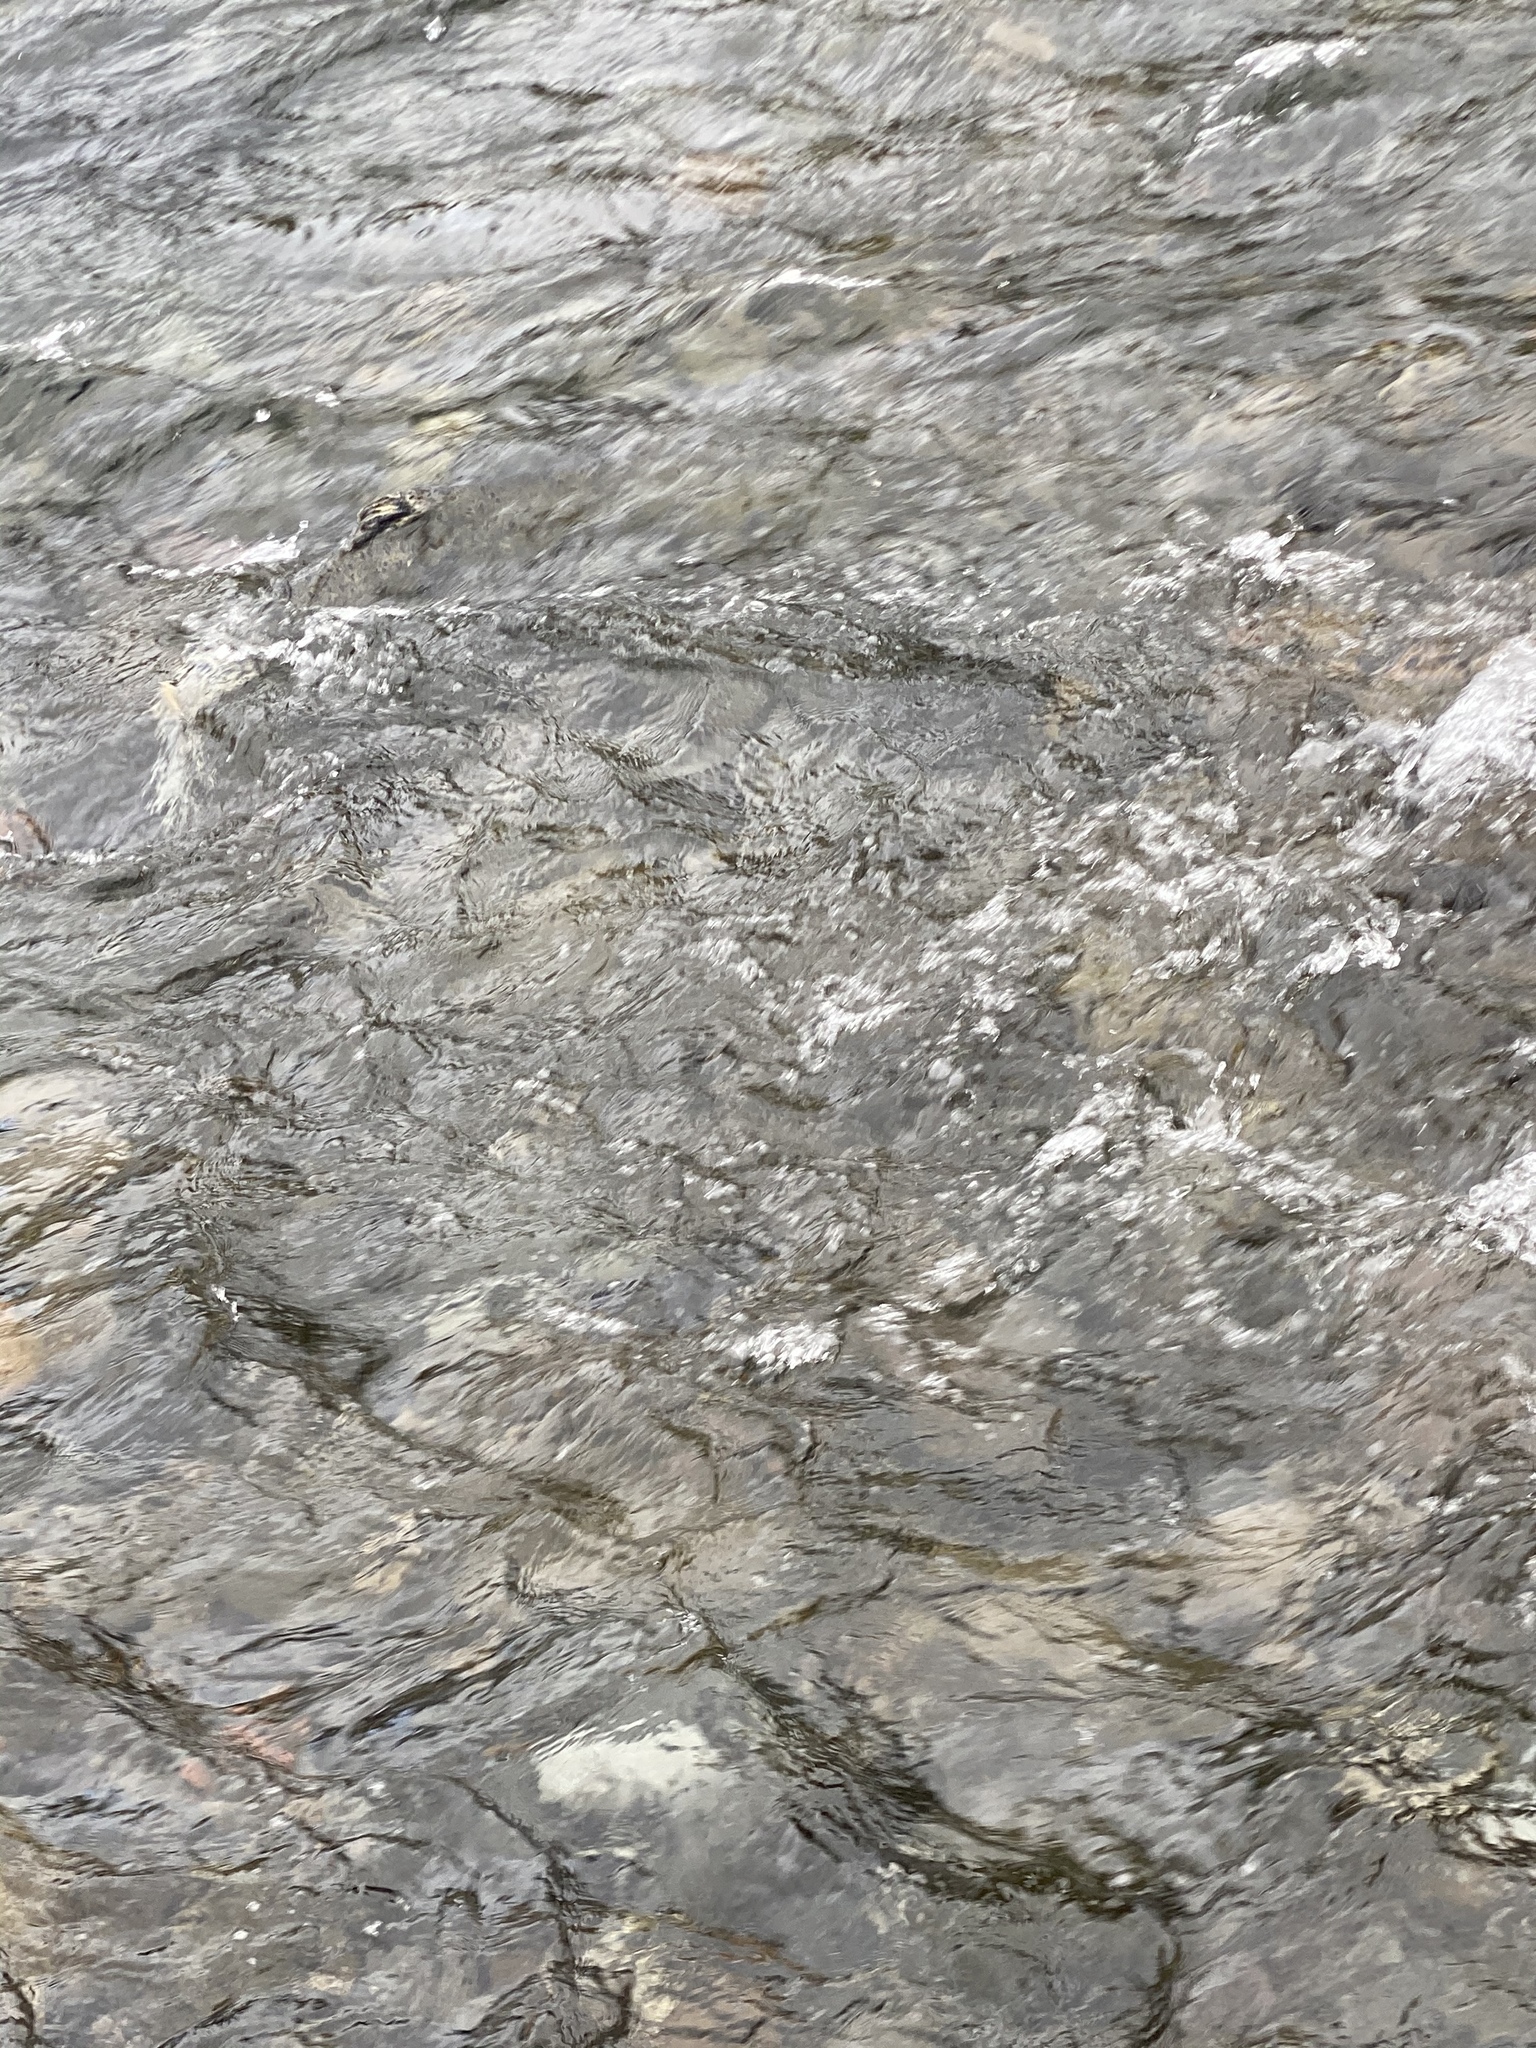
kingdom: Animalia
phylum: Chordata
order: Salmoniformes
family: Salmonidae
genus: Oncorhynchus
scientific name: Oncorhynchus tshawytscha
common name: Chinook salmon
